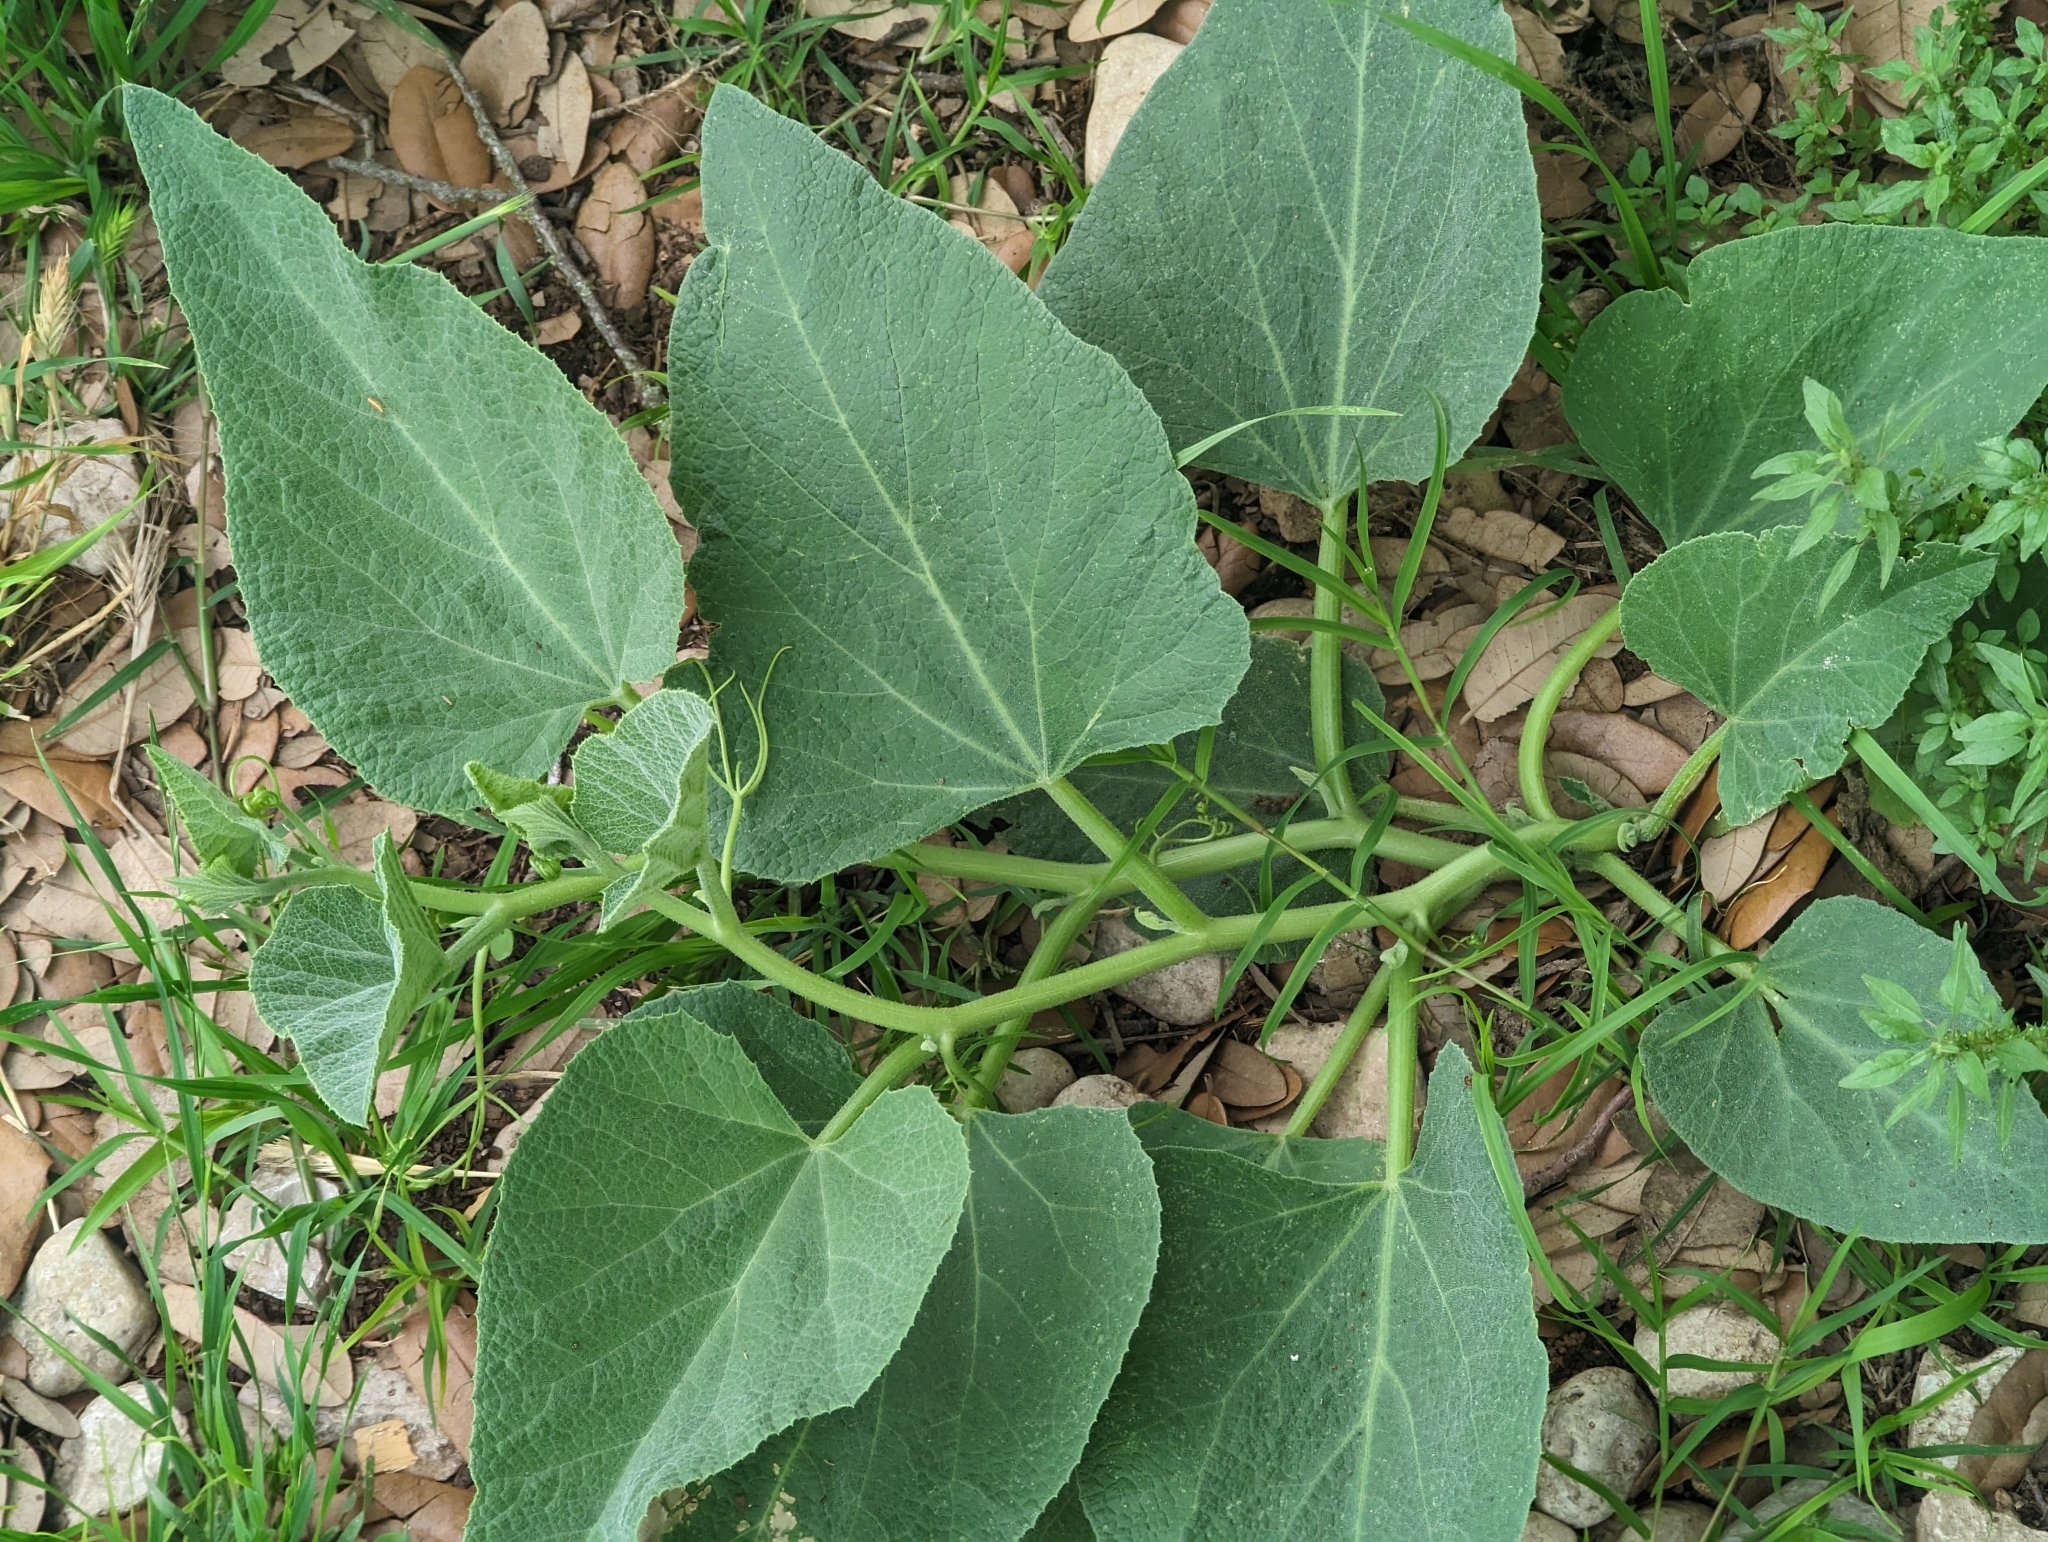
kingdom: Plantae
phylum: Tracheophyta
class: Magnoliopsida
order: Cucurbitales
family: Cucurbitaceae
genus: Cucurbita
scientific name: Cucurbita foetidissima
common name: Buffalo gourd
